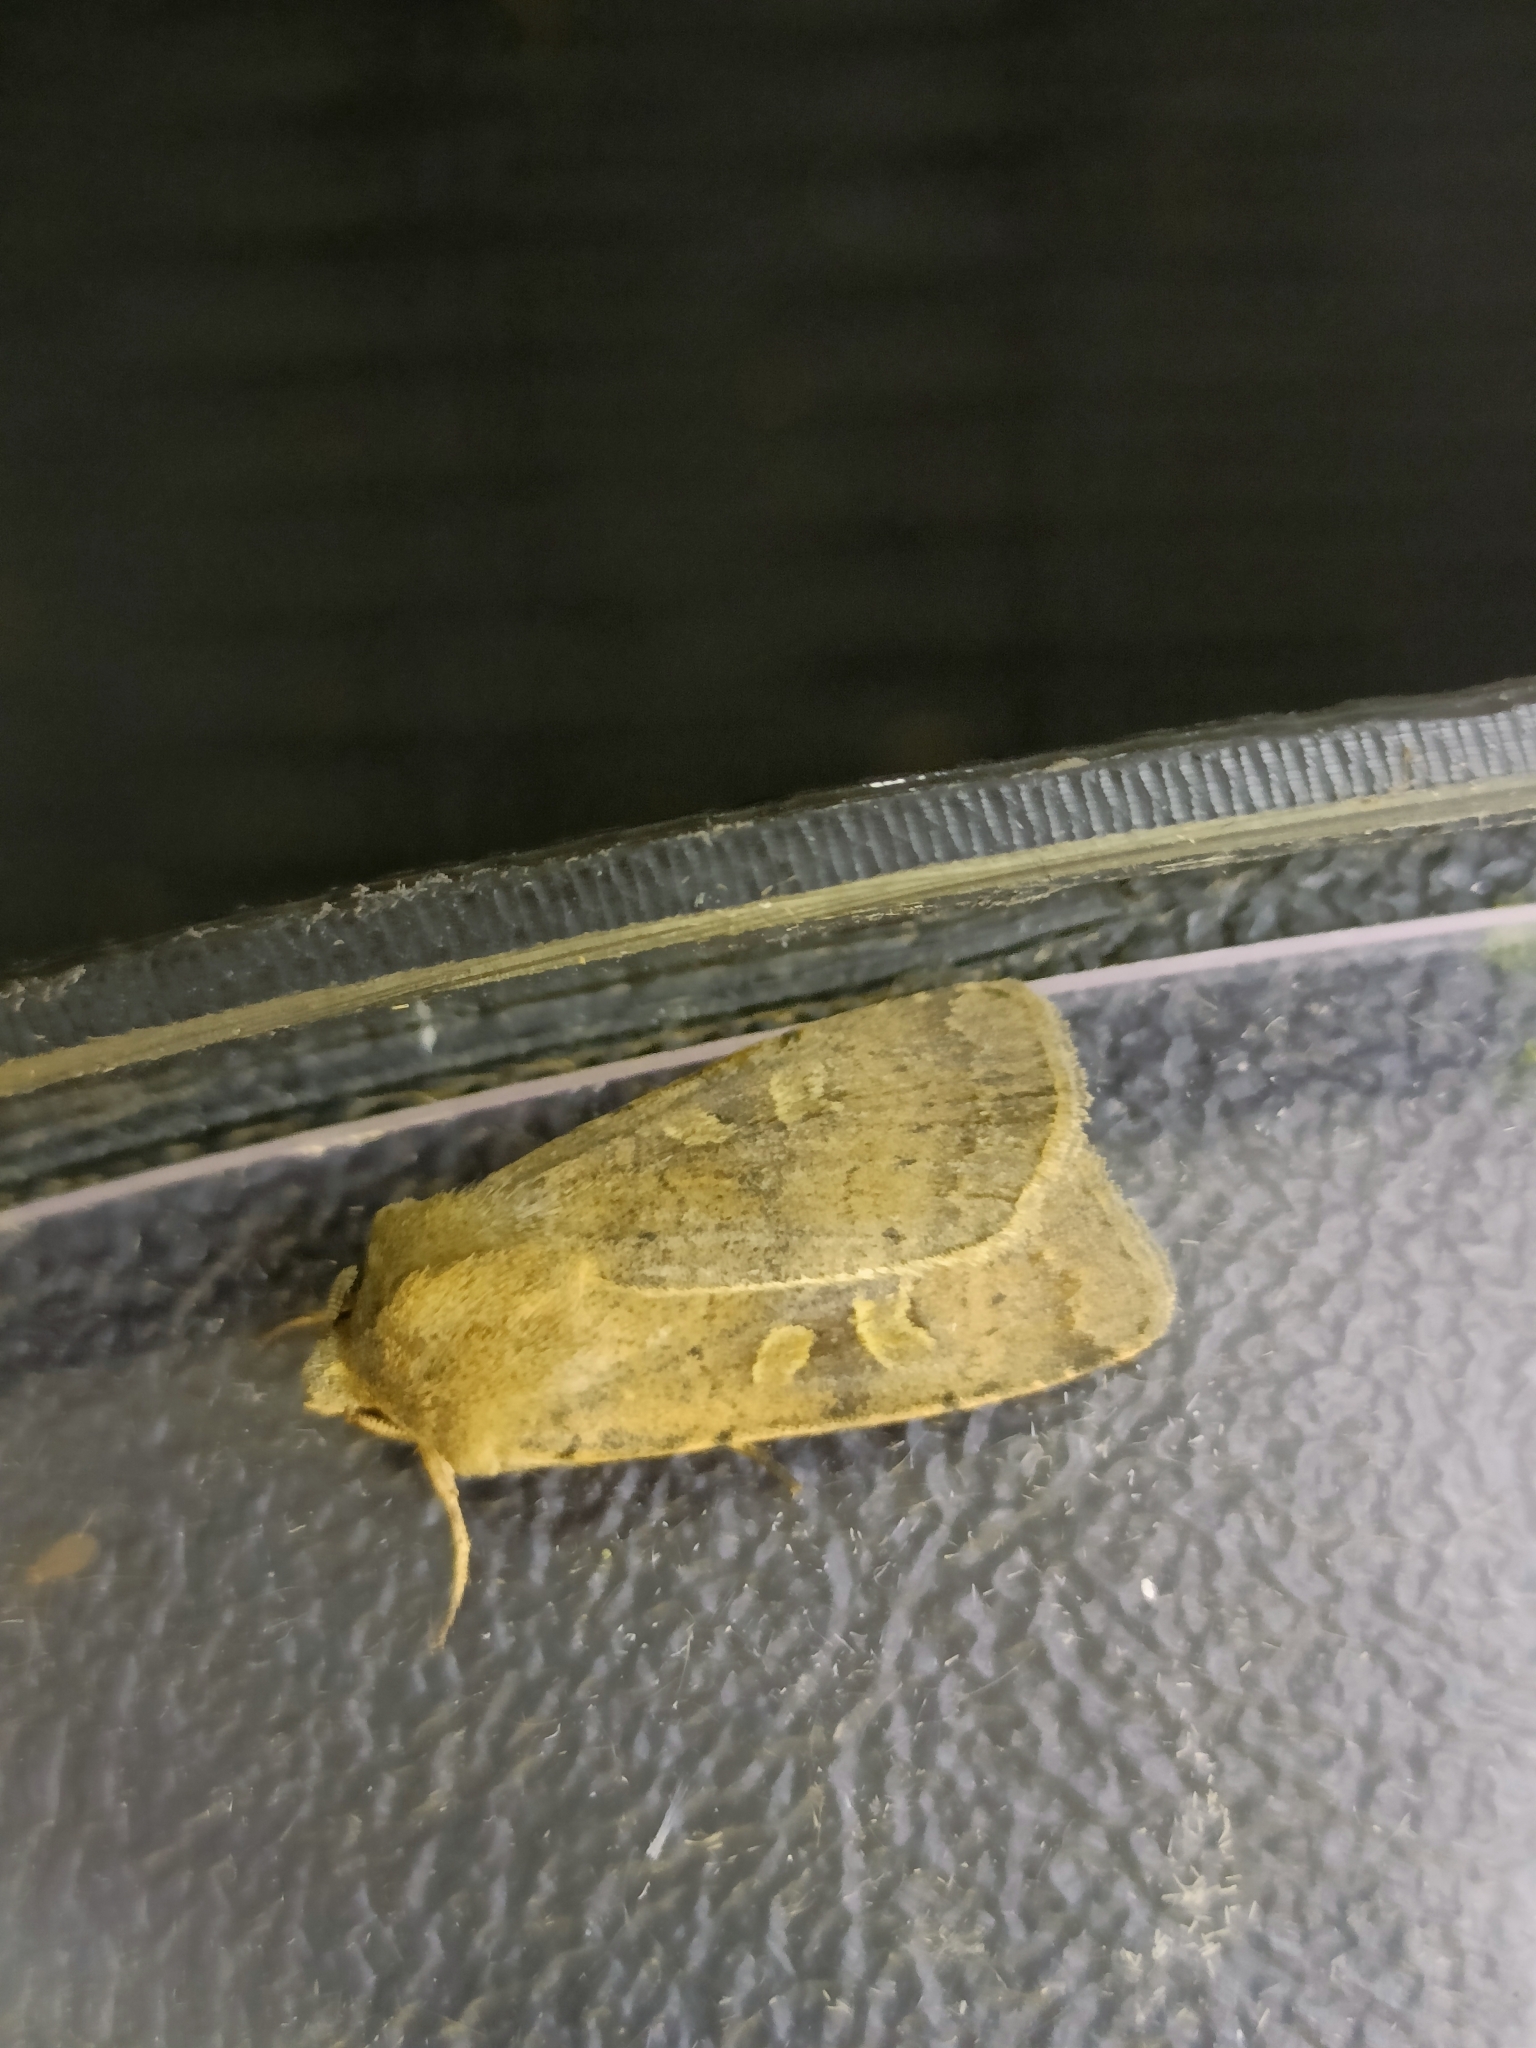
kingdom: Animalia
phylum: Arthropoda
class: Insecta
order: Lepidoptera
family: Noctuidae
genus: Xestia
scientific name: Xestia xanthographa
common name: Square-spot rustic
